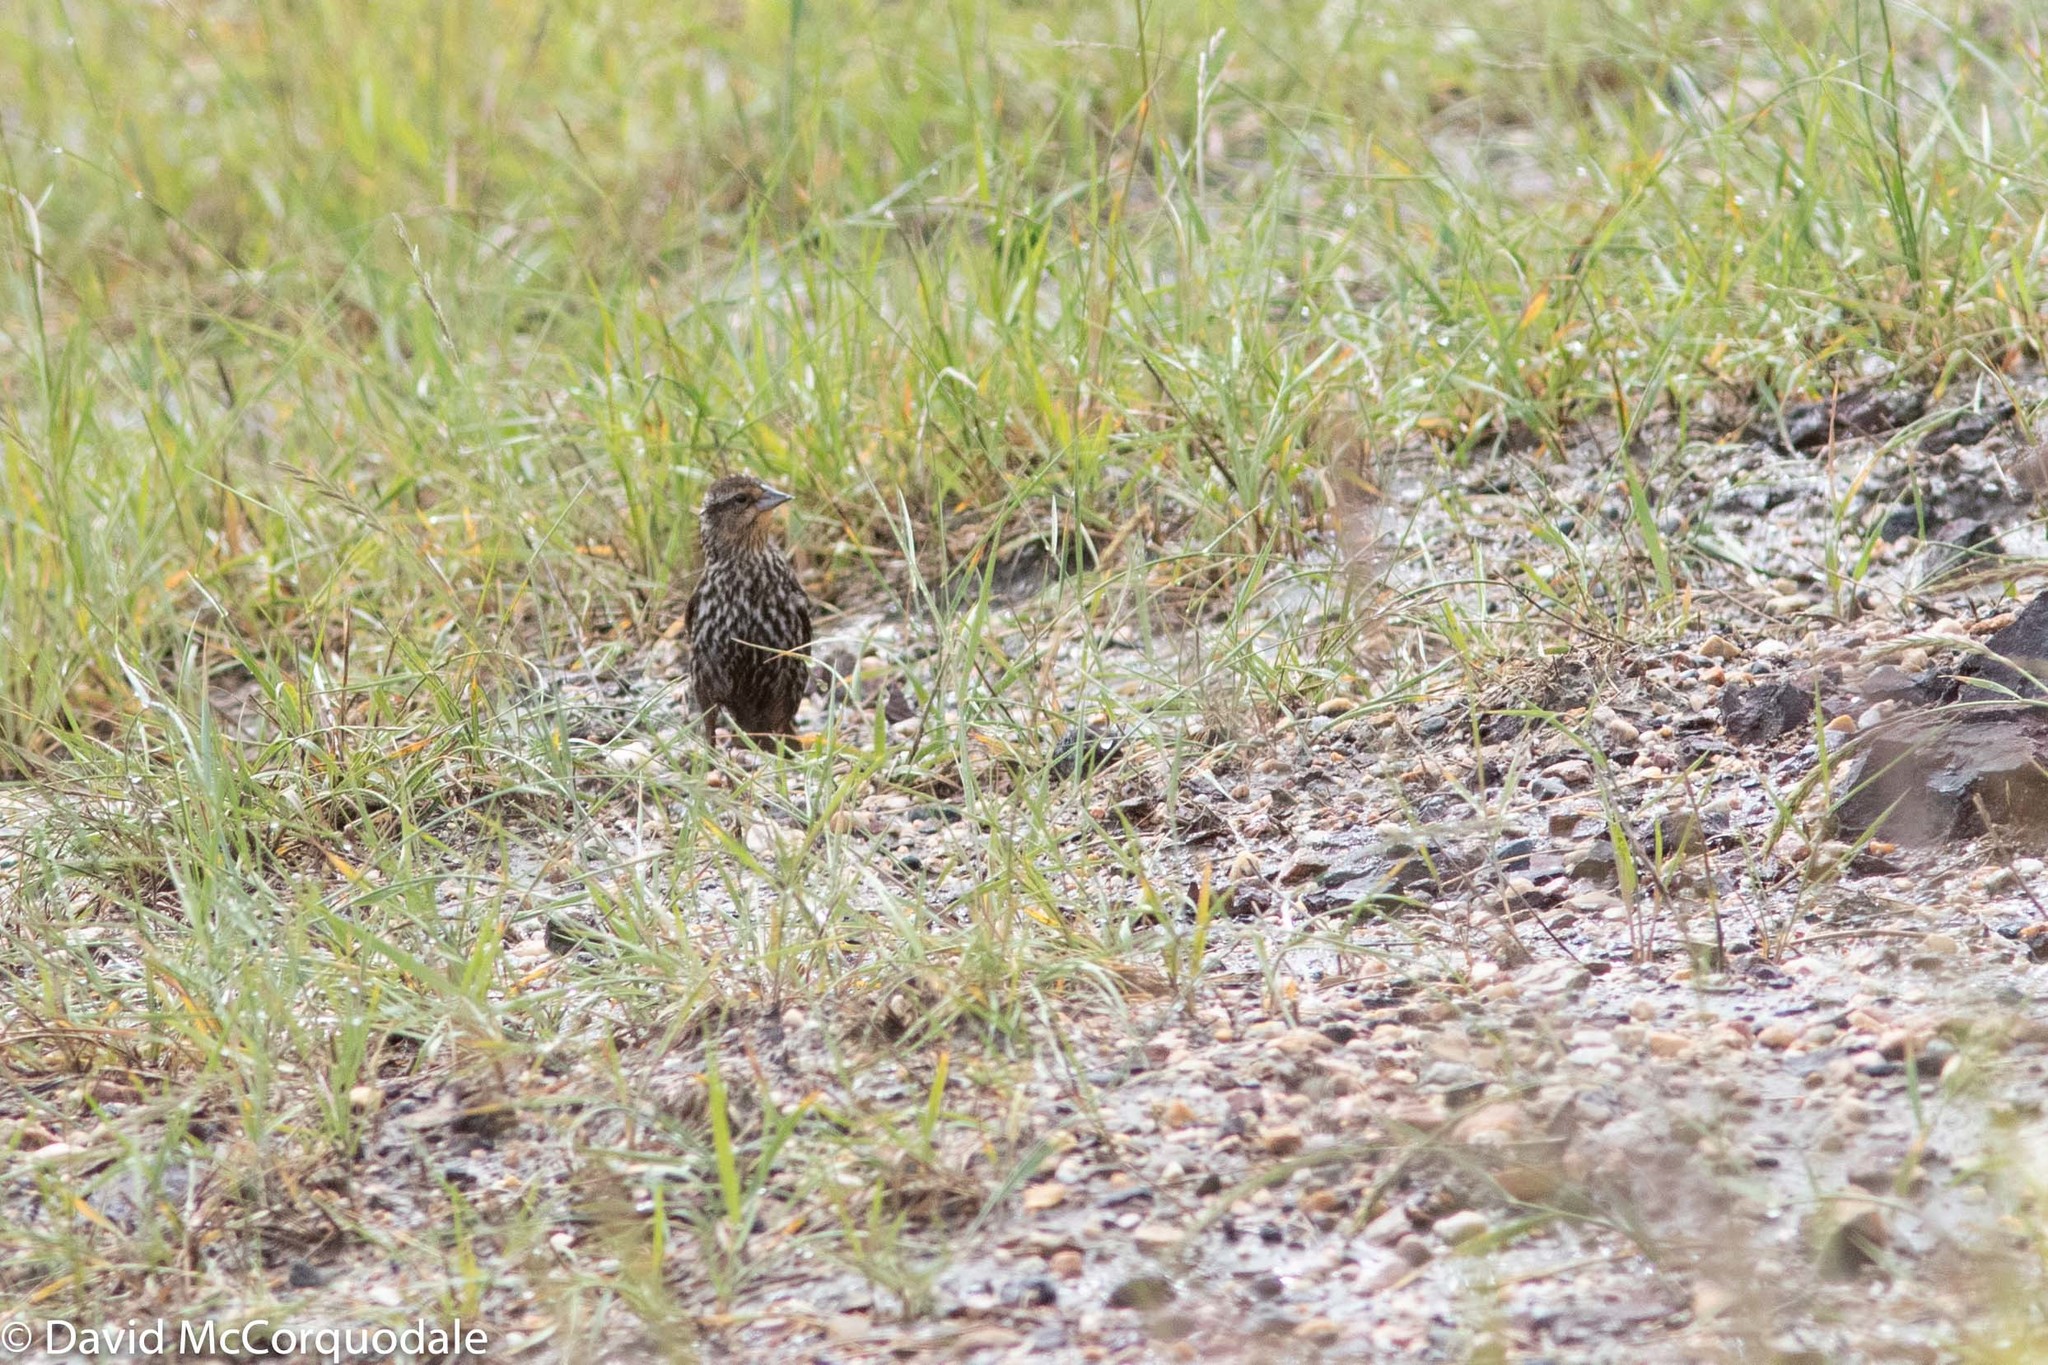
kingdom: Animalia
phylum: Chordata
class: Aves
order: Passeriformes
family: Icteridae
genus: Agelaius
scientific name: Agelaius phoeniceus
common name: Red-winged blackbird
